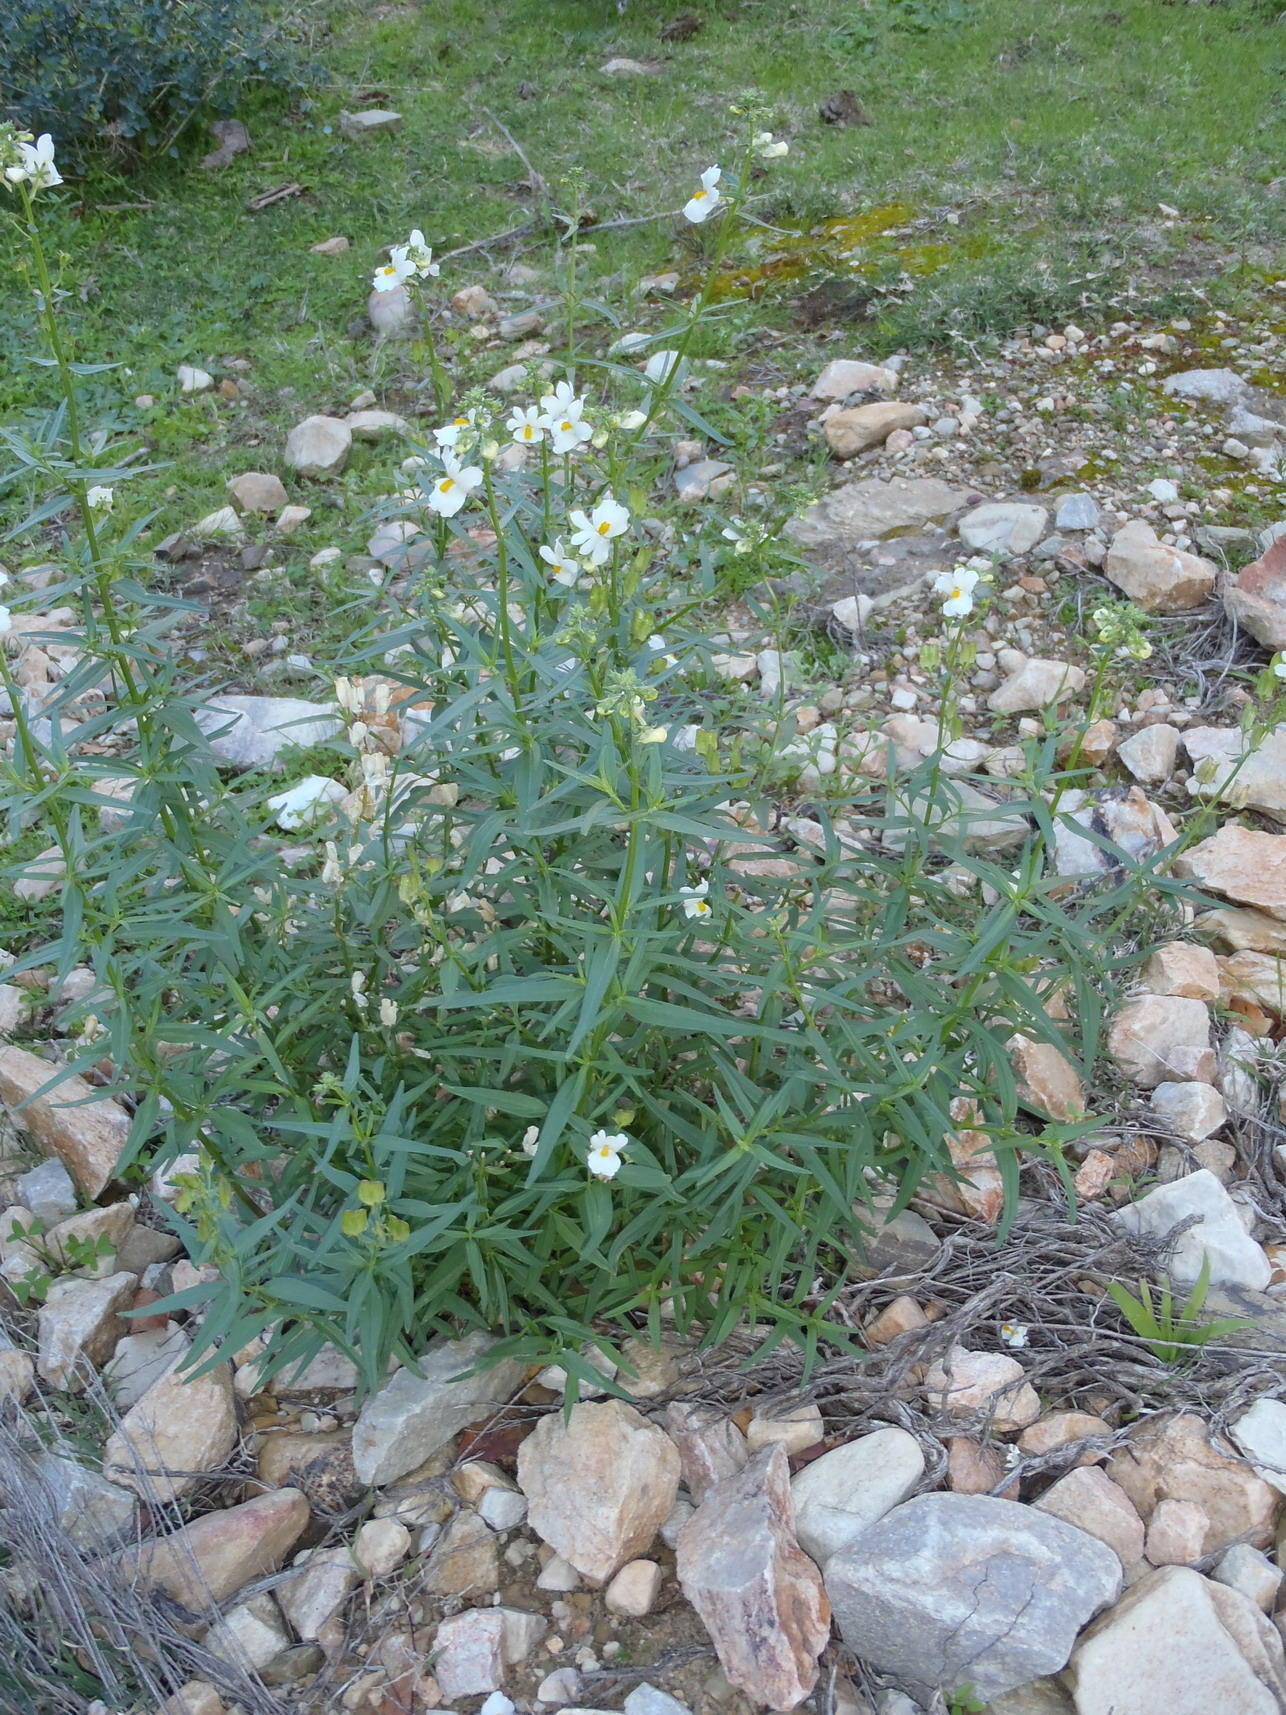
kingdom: Plantae
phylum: Tracheophyta
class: Magnoliopsida
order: Lamiales
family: Scrophulariaceae
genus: Nemesia
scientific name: Nemesia fruticans
